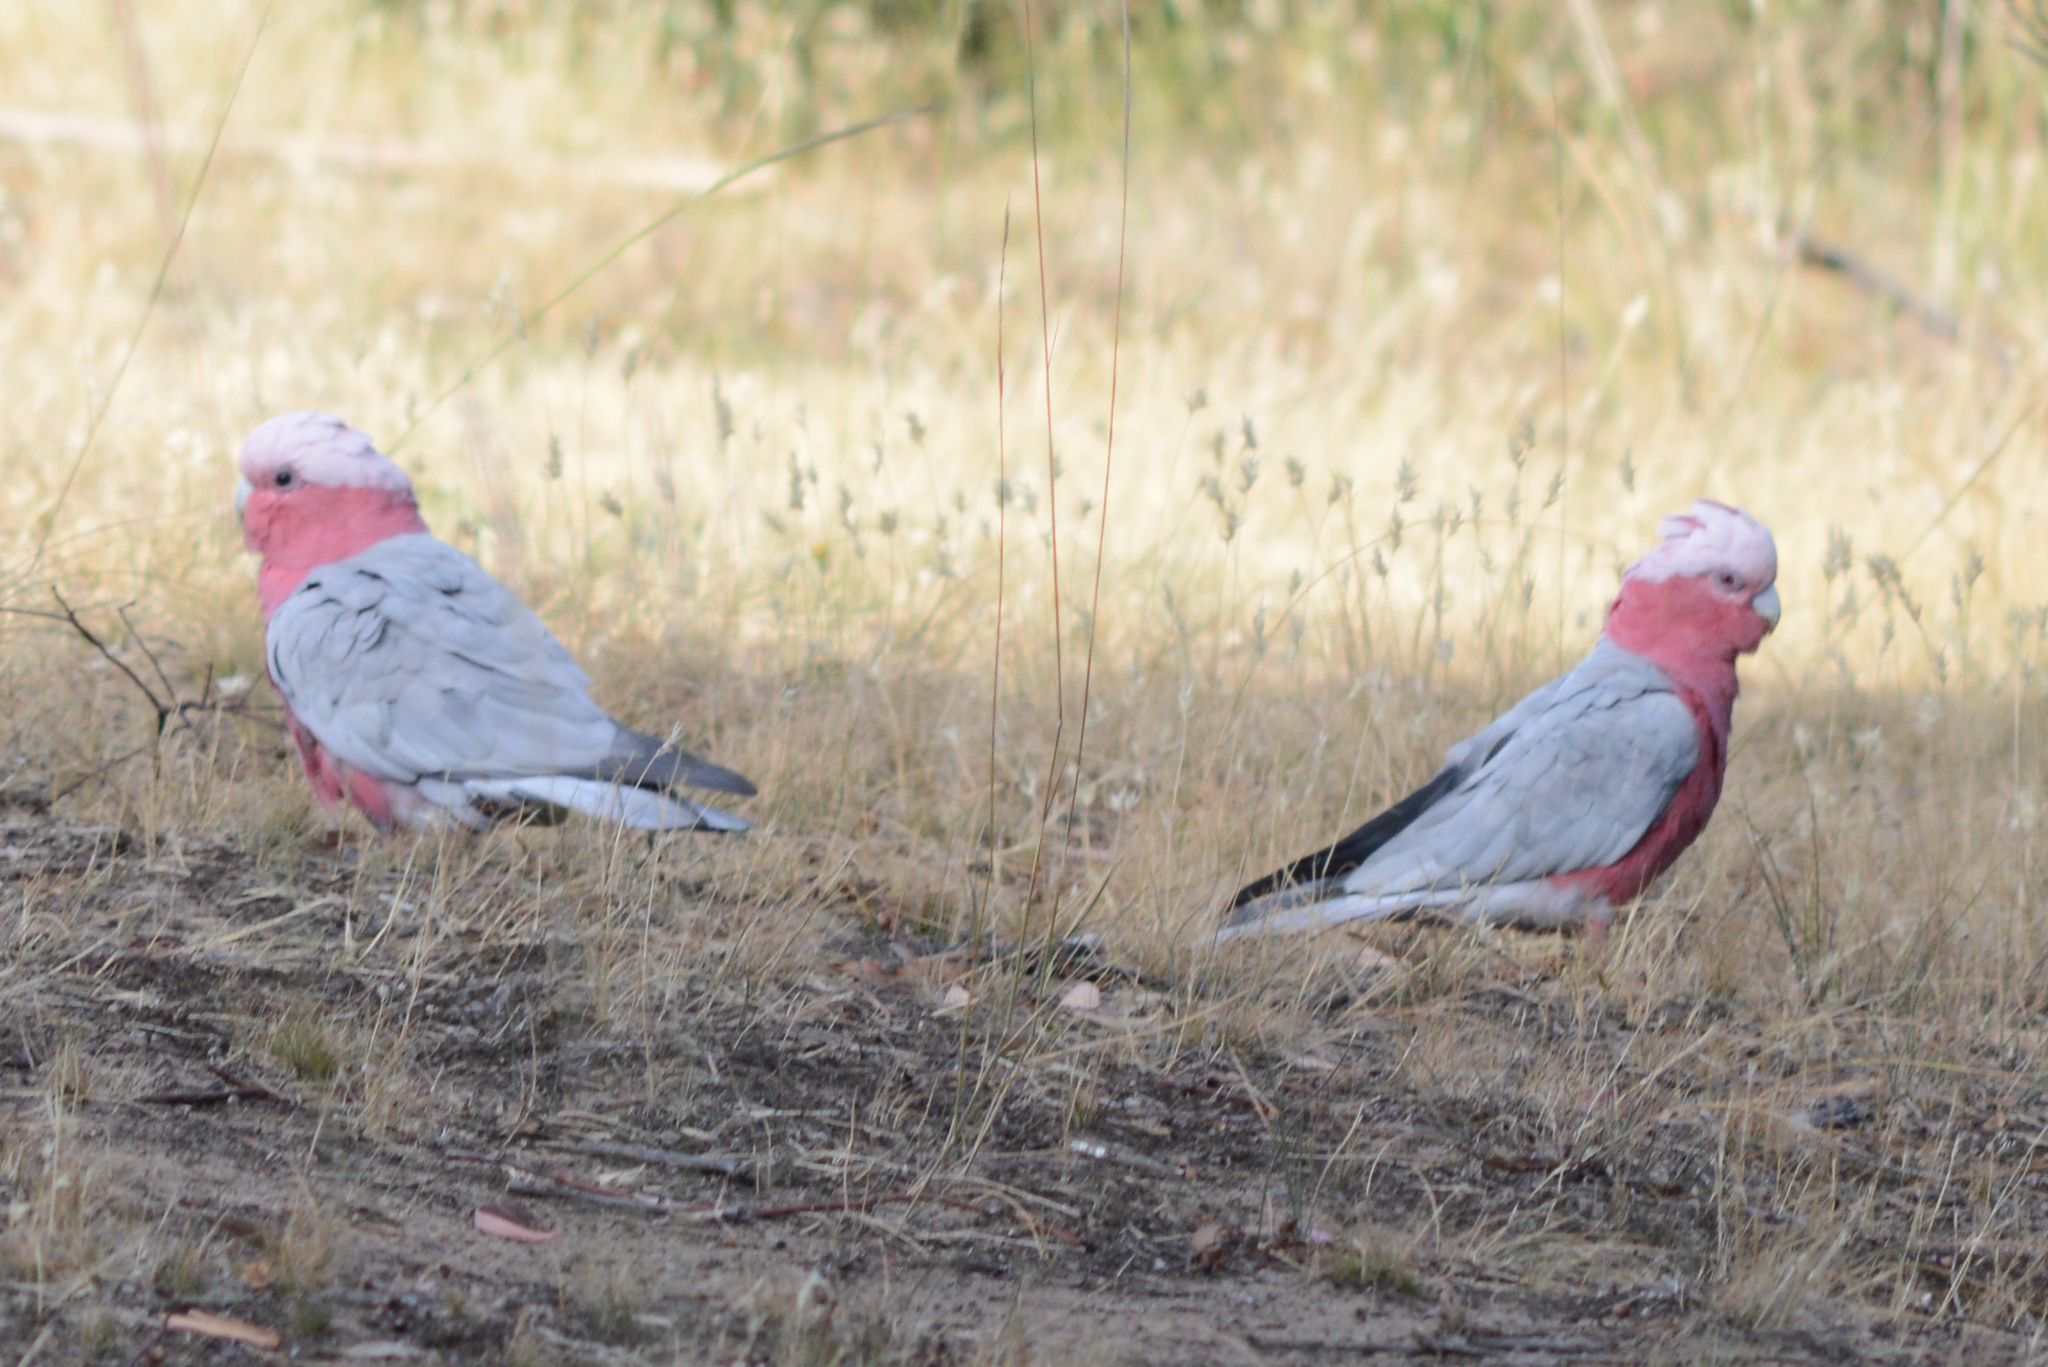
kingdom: Animalia
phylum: Chordata
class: Aves
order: Psittaciformes
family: Psittacidae
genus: Eolophus
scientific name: Eolophus roseicapilla
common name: Galah
